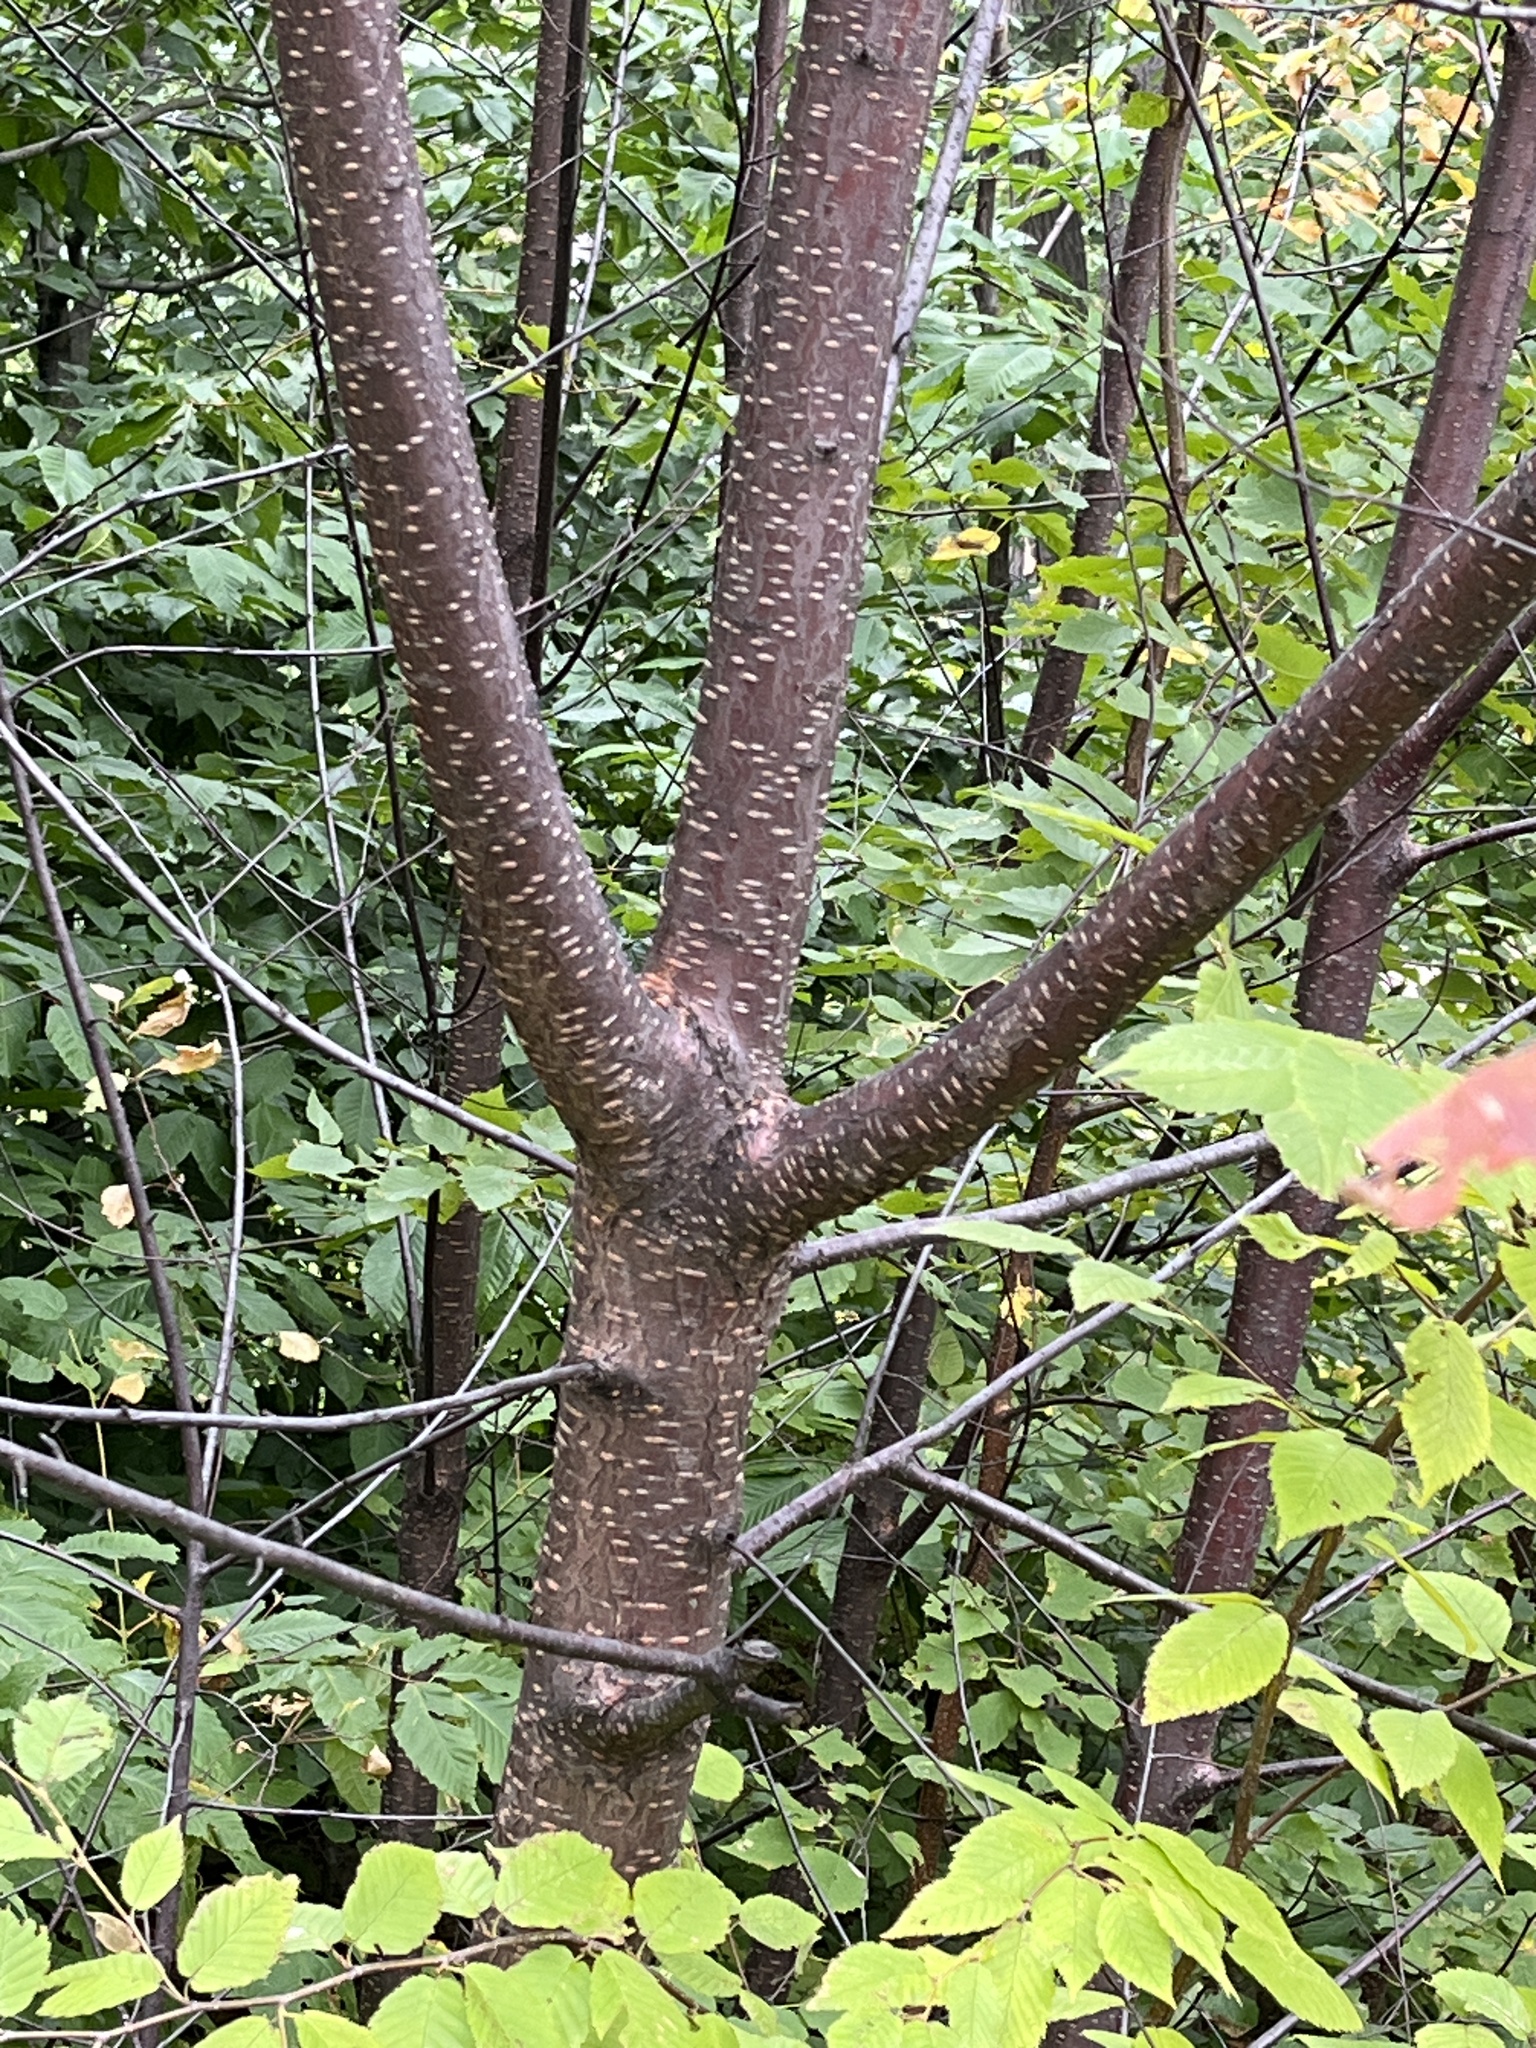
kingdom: Plantae
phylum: Tracheophyta
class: Magnoliopsida
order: Rosales
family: Rosaceae
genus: Prunus
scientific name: Prunus pensylvanica
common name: Pin cherry
